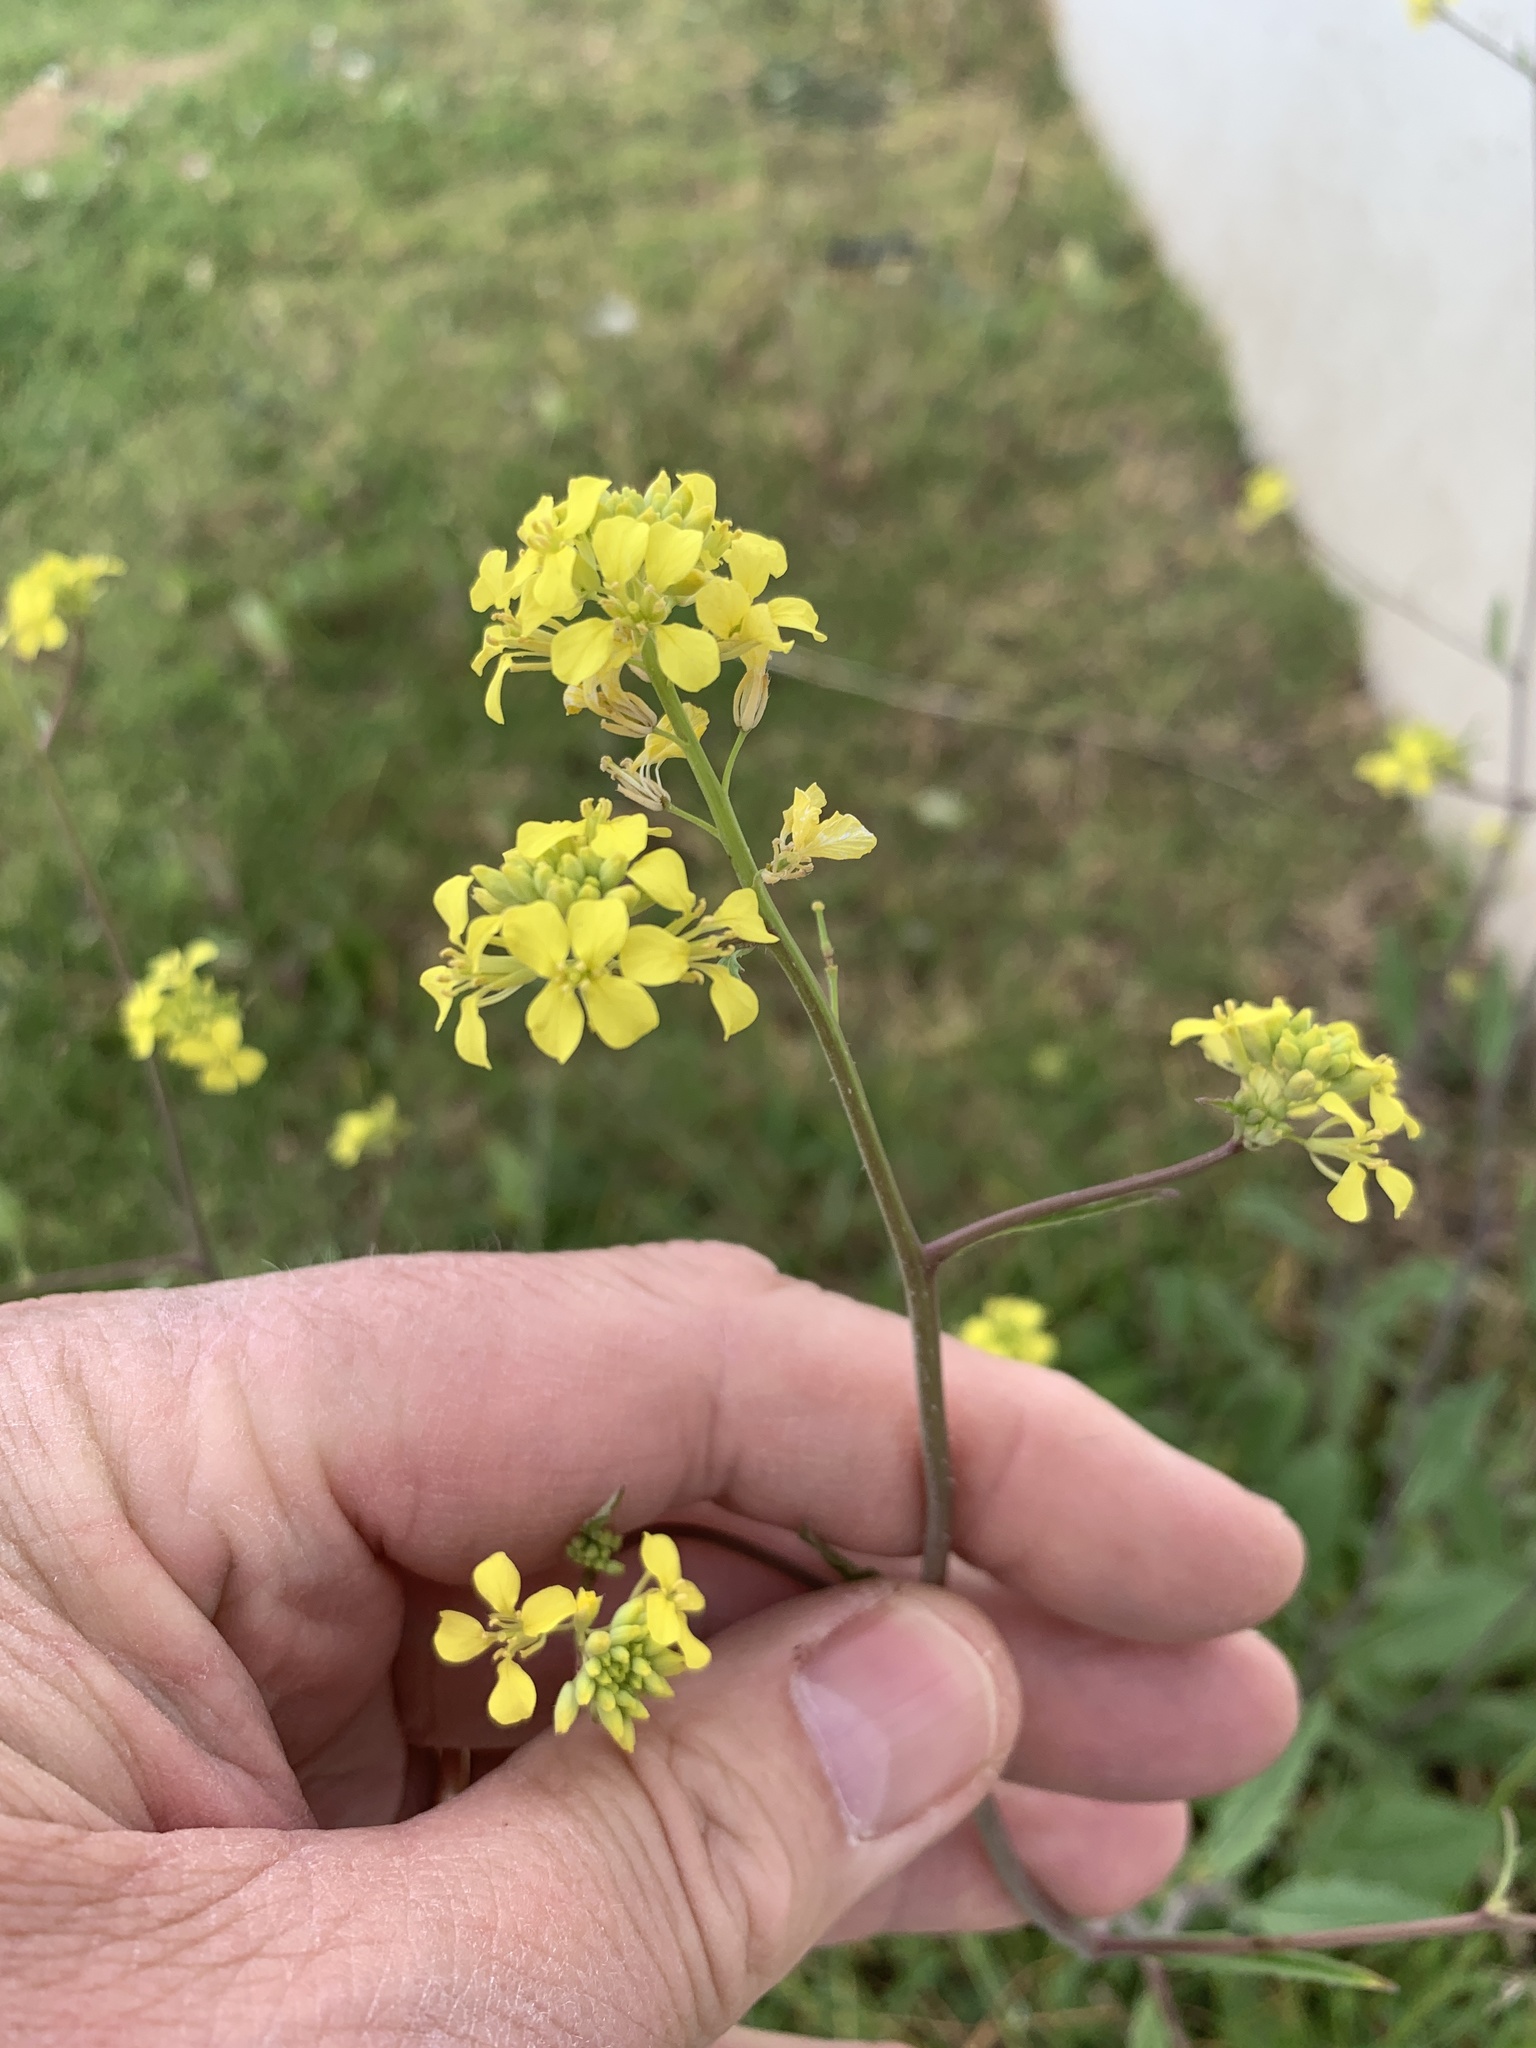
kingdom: Plantae
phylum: Tracheophyta
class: Magnoliopsida
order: Brassicales
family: Brassicaceae
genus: Rapistrum
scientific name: Rapistrum rugosum
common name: Annual bastardcabbage
